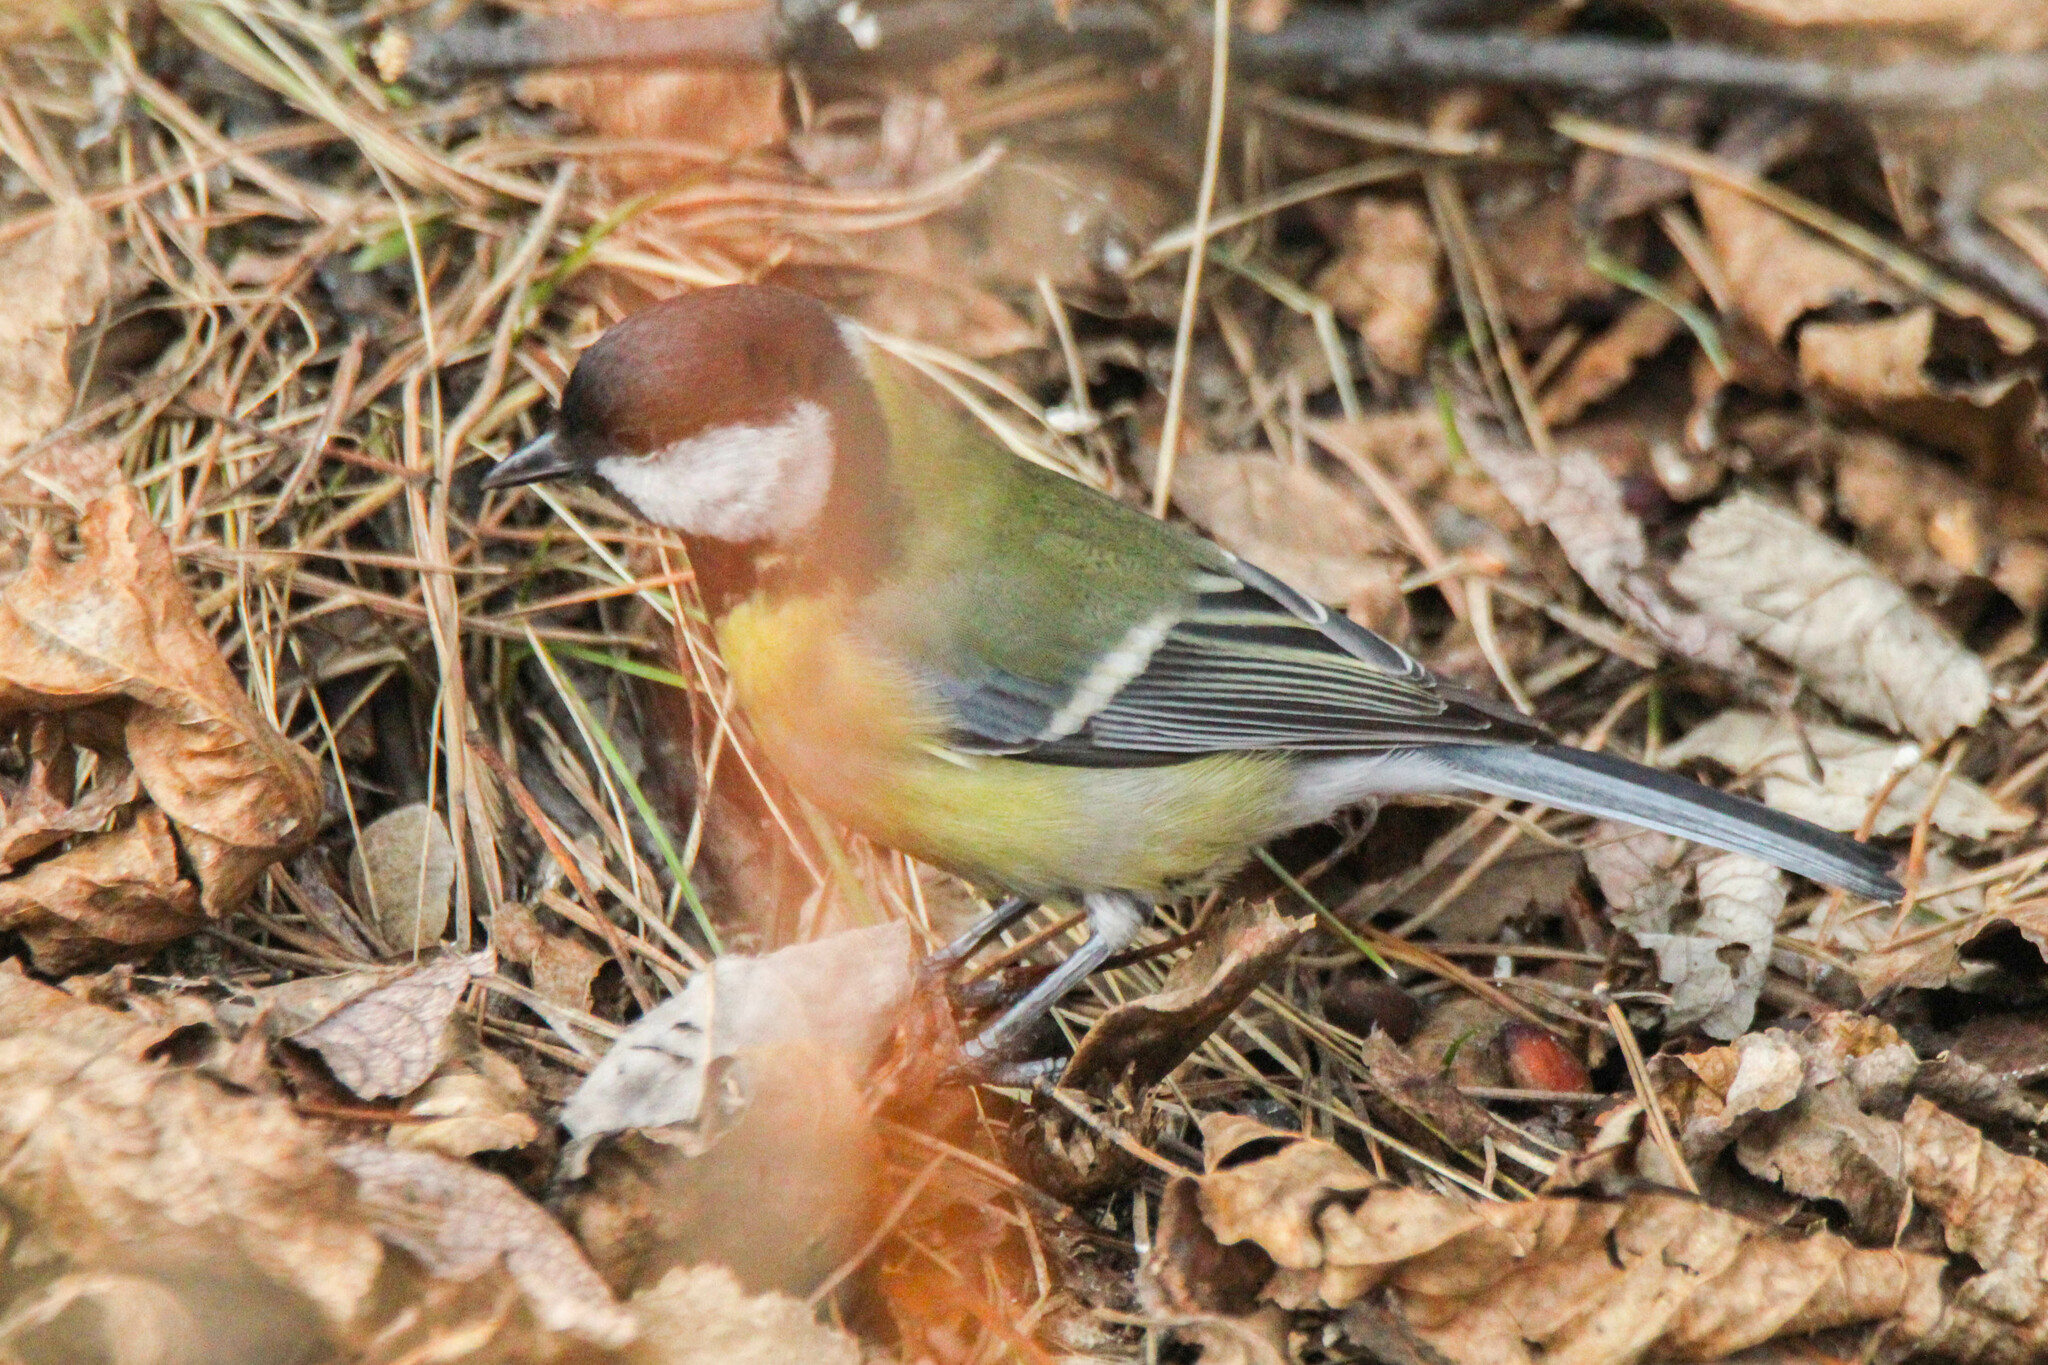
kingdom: Animalia
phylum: Chordata
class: Aves
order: Passeriformes
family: Paridae
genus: Parus
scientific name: Parus major
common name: Great tit
